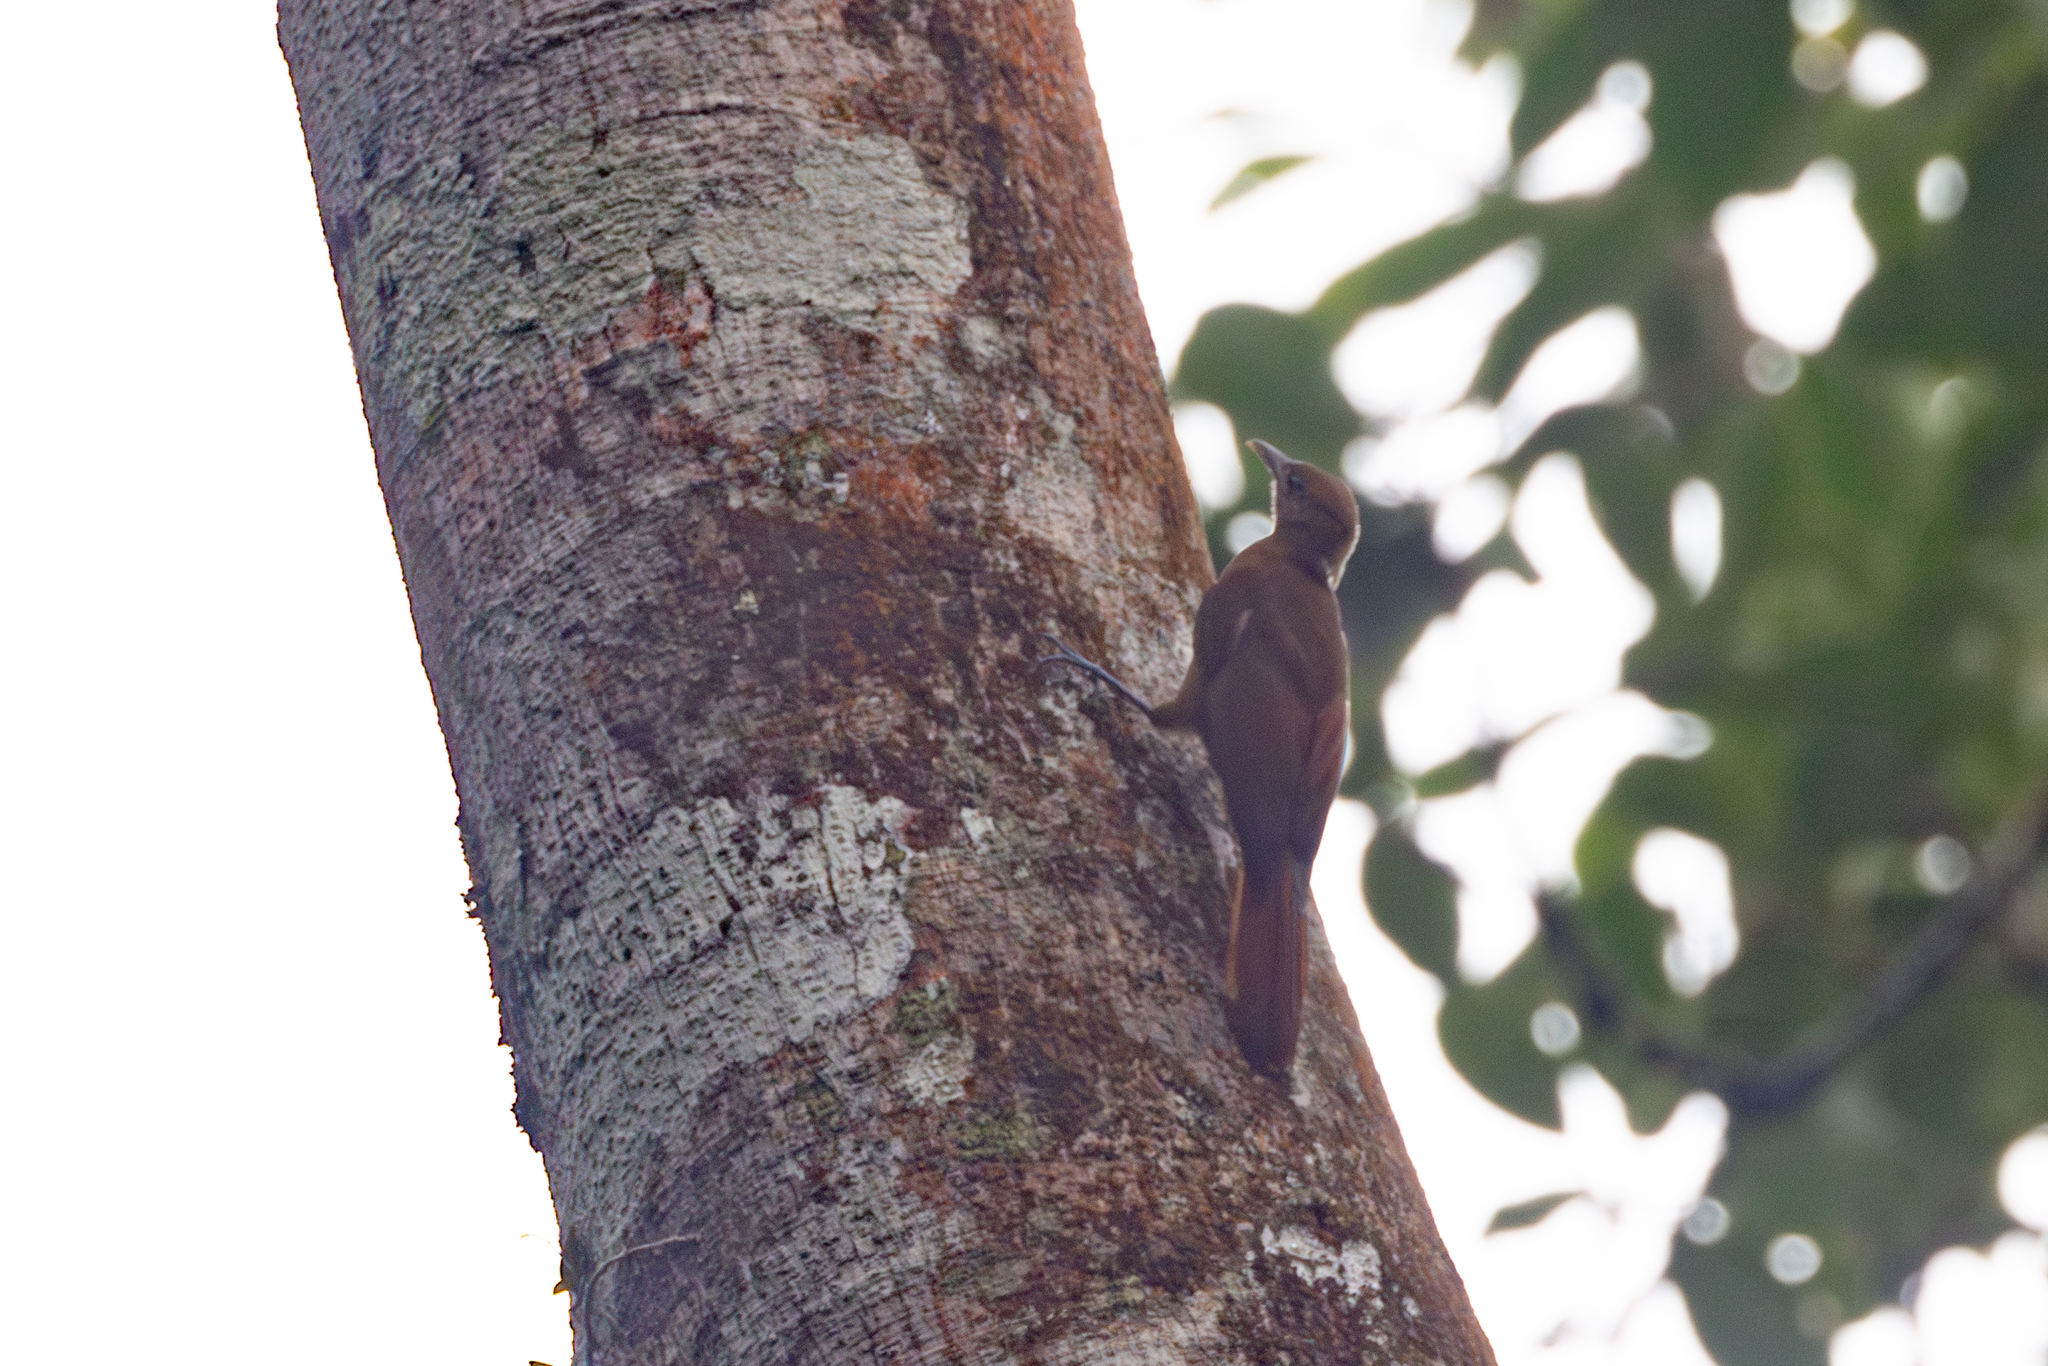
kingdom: Animalia
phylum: Chordata
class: Aves
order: Passeriformes
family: Furnariidae
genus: Dendrocincla
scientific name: Dendrocincla fuliginosa
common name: Plain-brown woodcreeper
